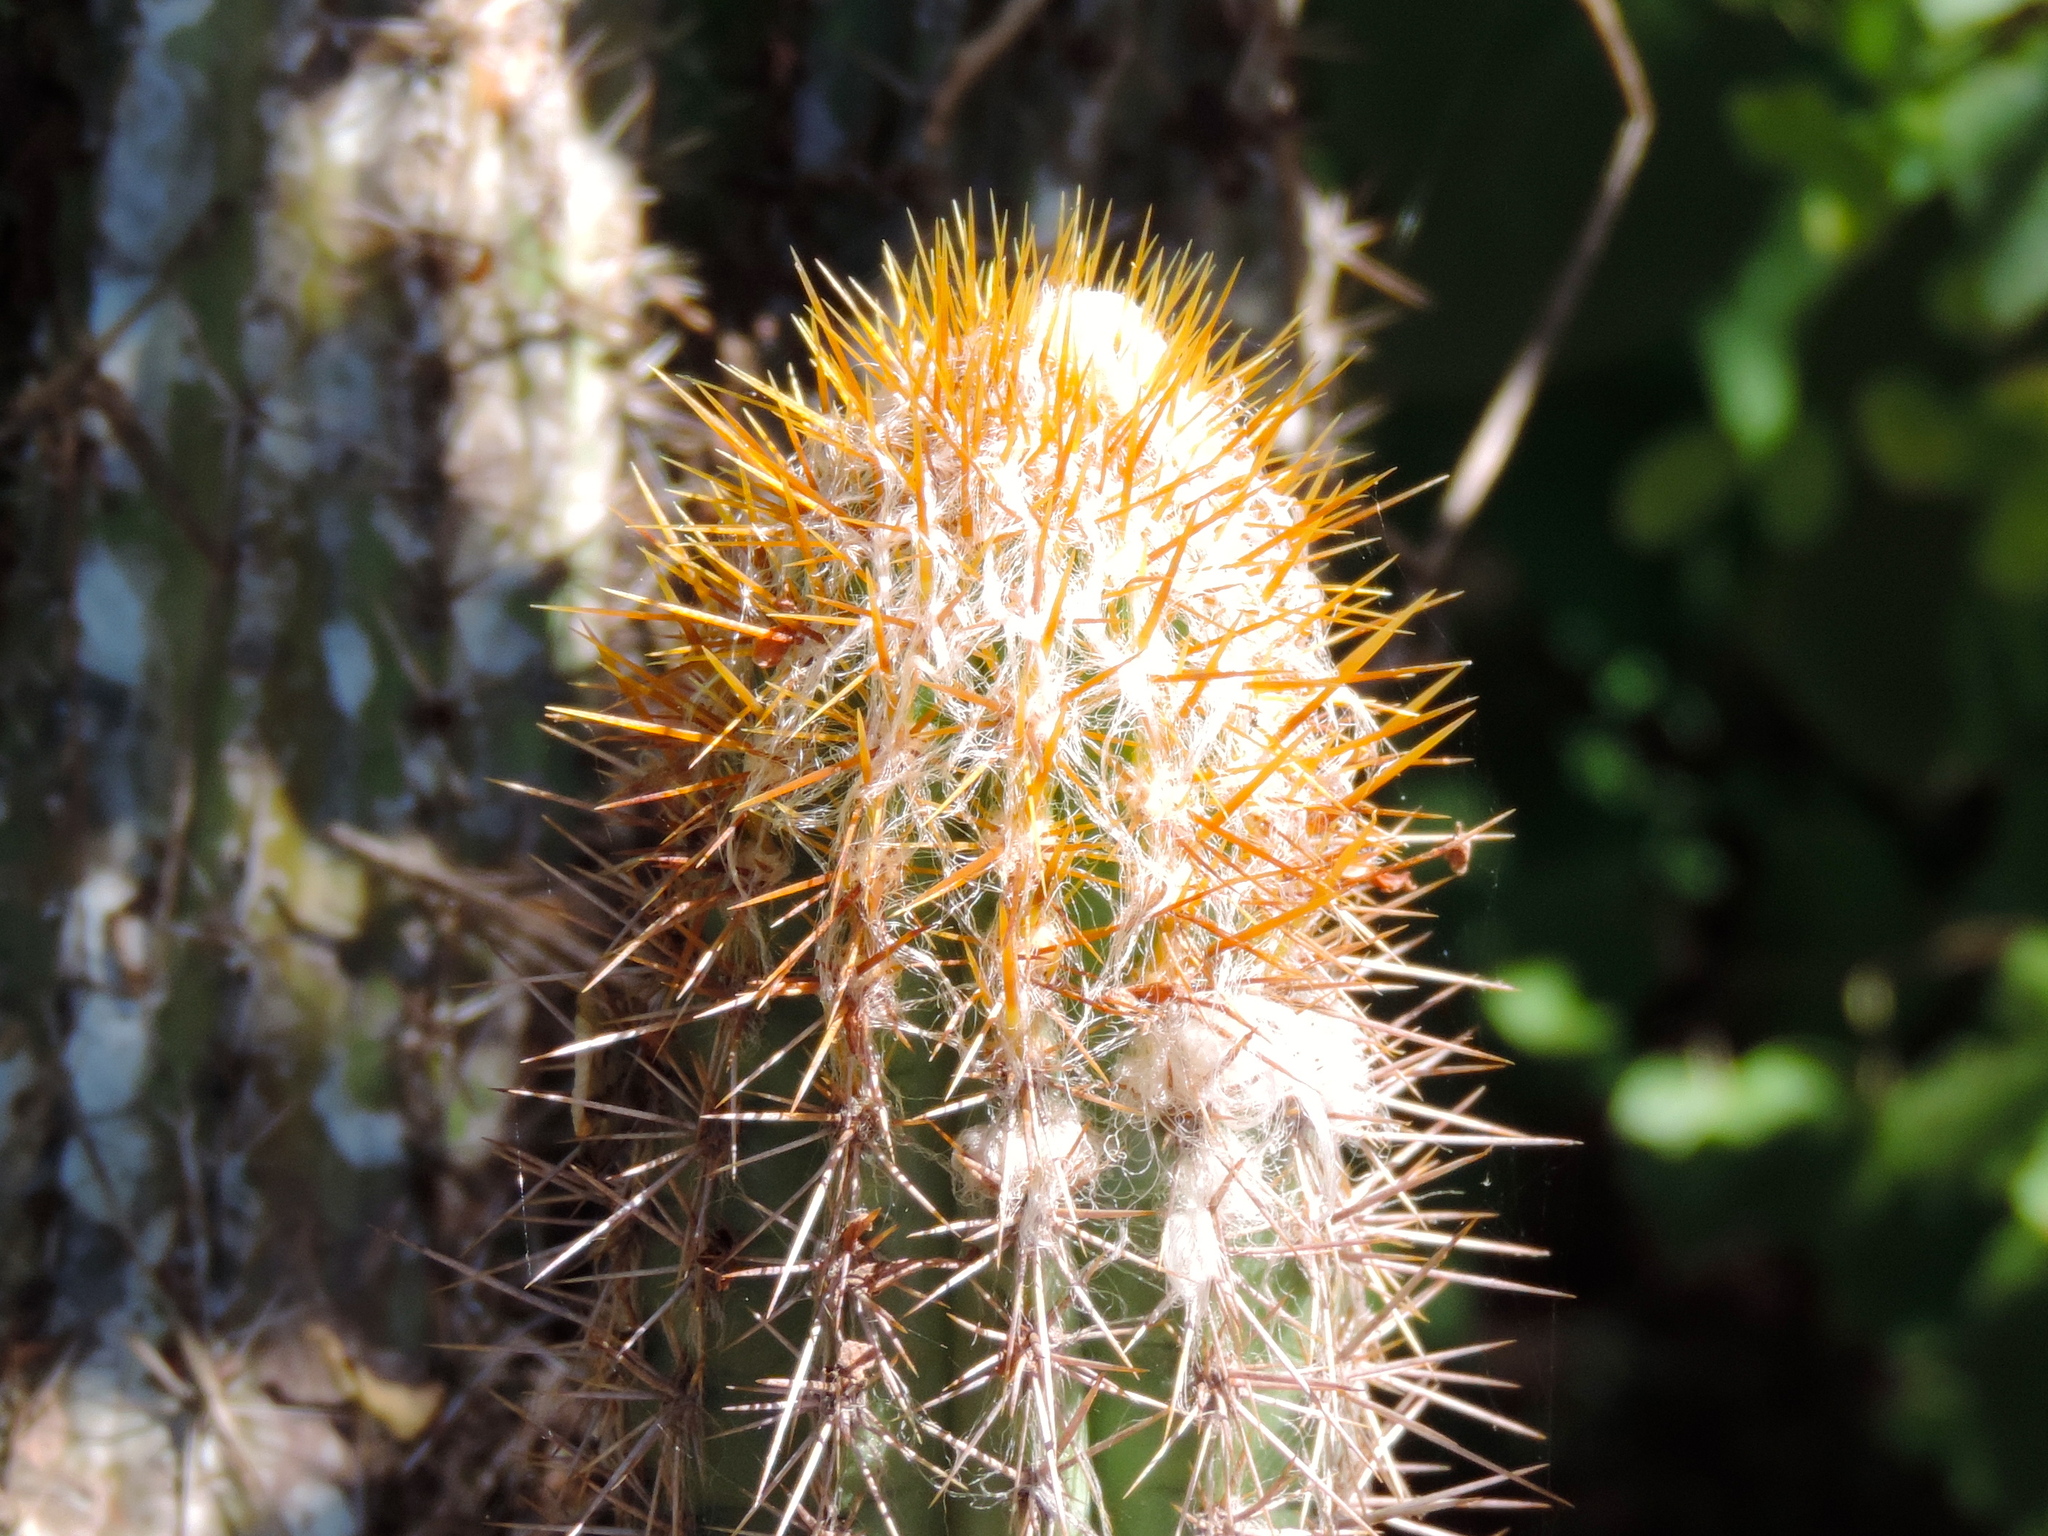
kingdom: Plantae
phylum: Tracheophyta
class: Magnoliopsida
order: Caryophyllales
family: Cactaceae
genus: Pilosocereus
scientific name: Pilosocereus purpusii
